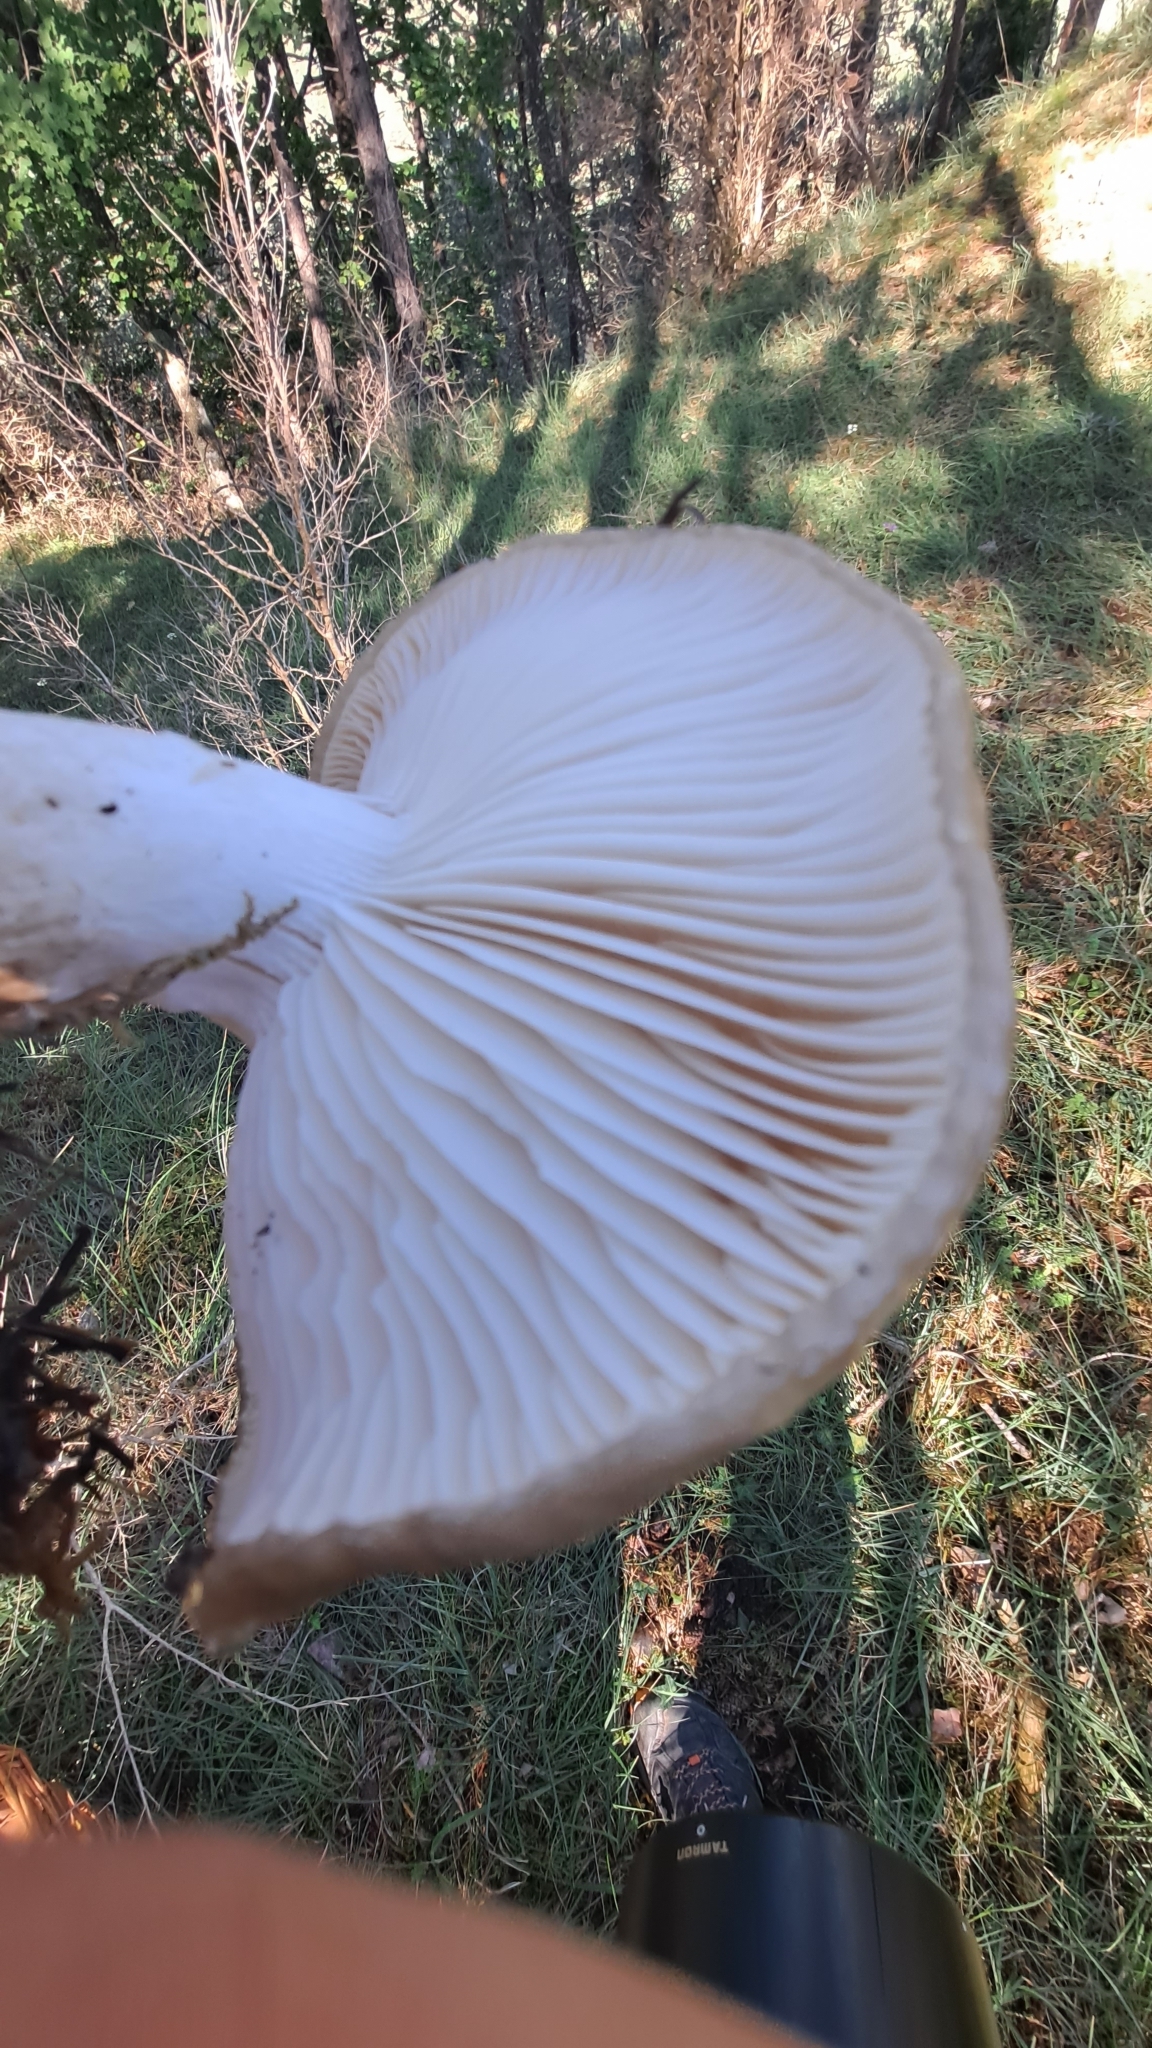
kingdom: Fungi
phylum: Basidiomycota
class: Agaricomycetes
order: Agaricales
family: Hygrophoraceae
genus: Hygrophorus
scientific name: Hygrophorus limacinus
